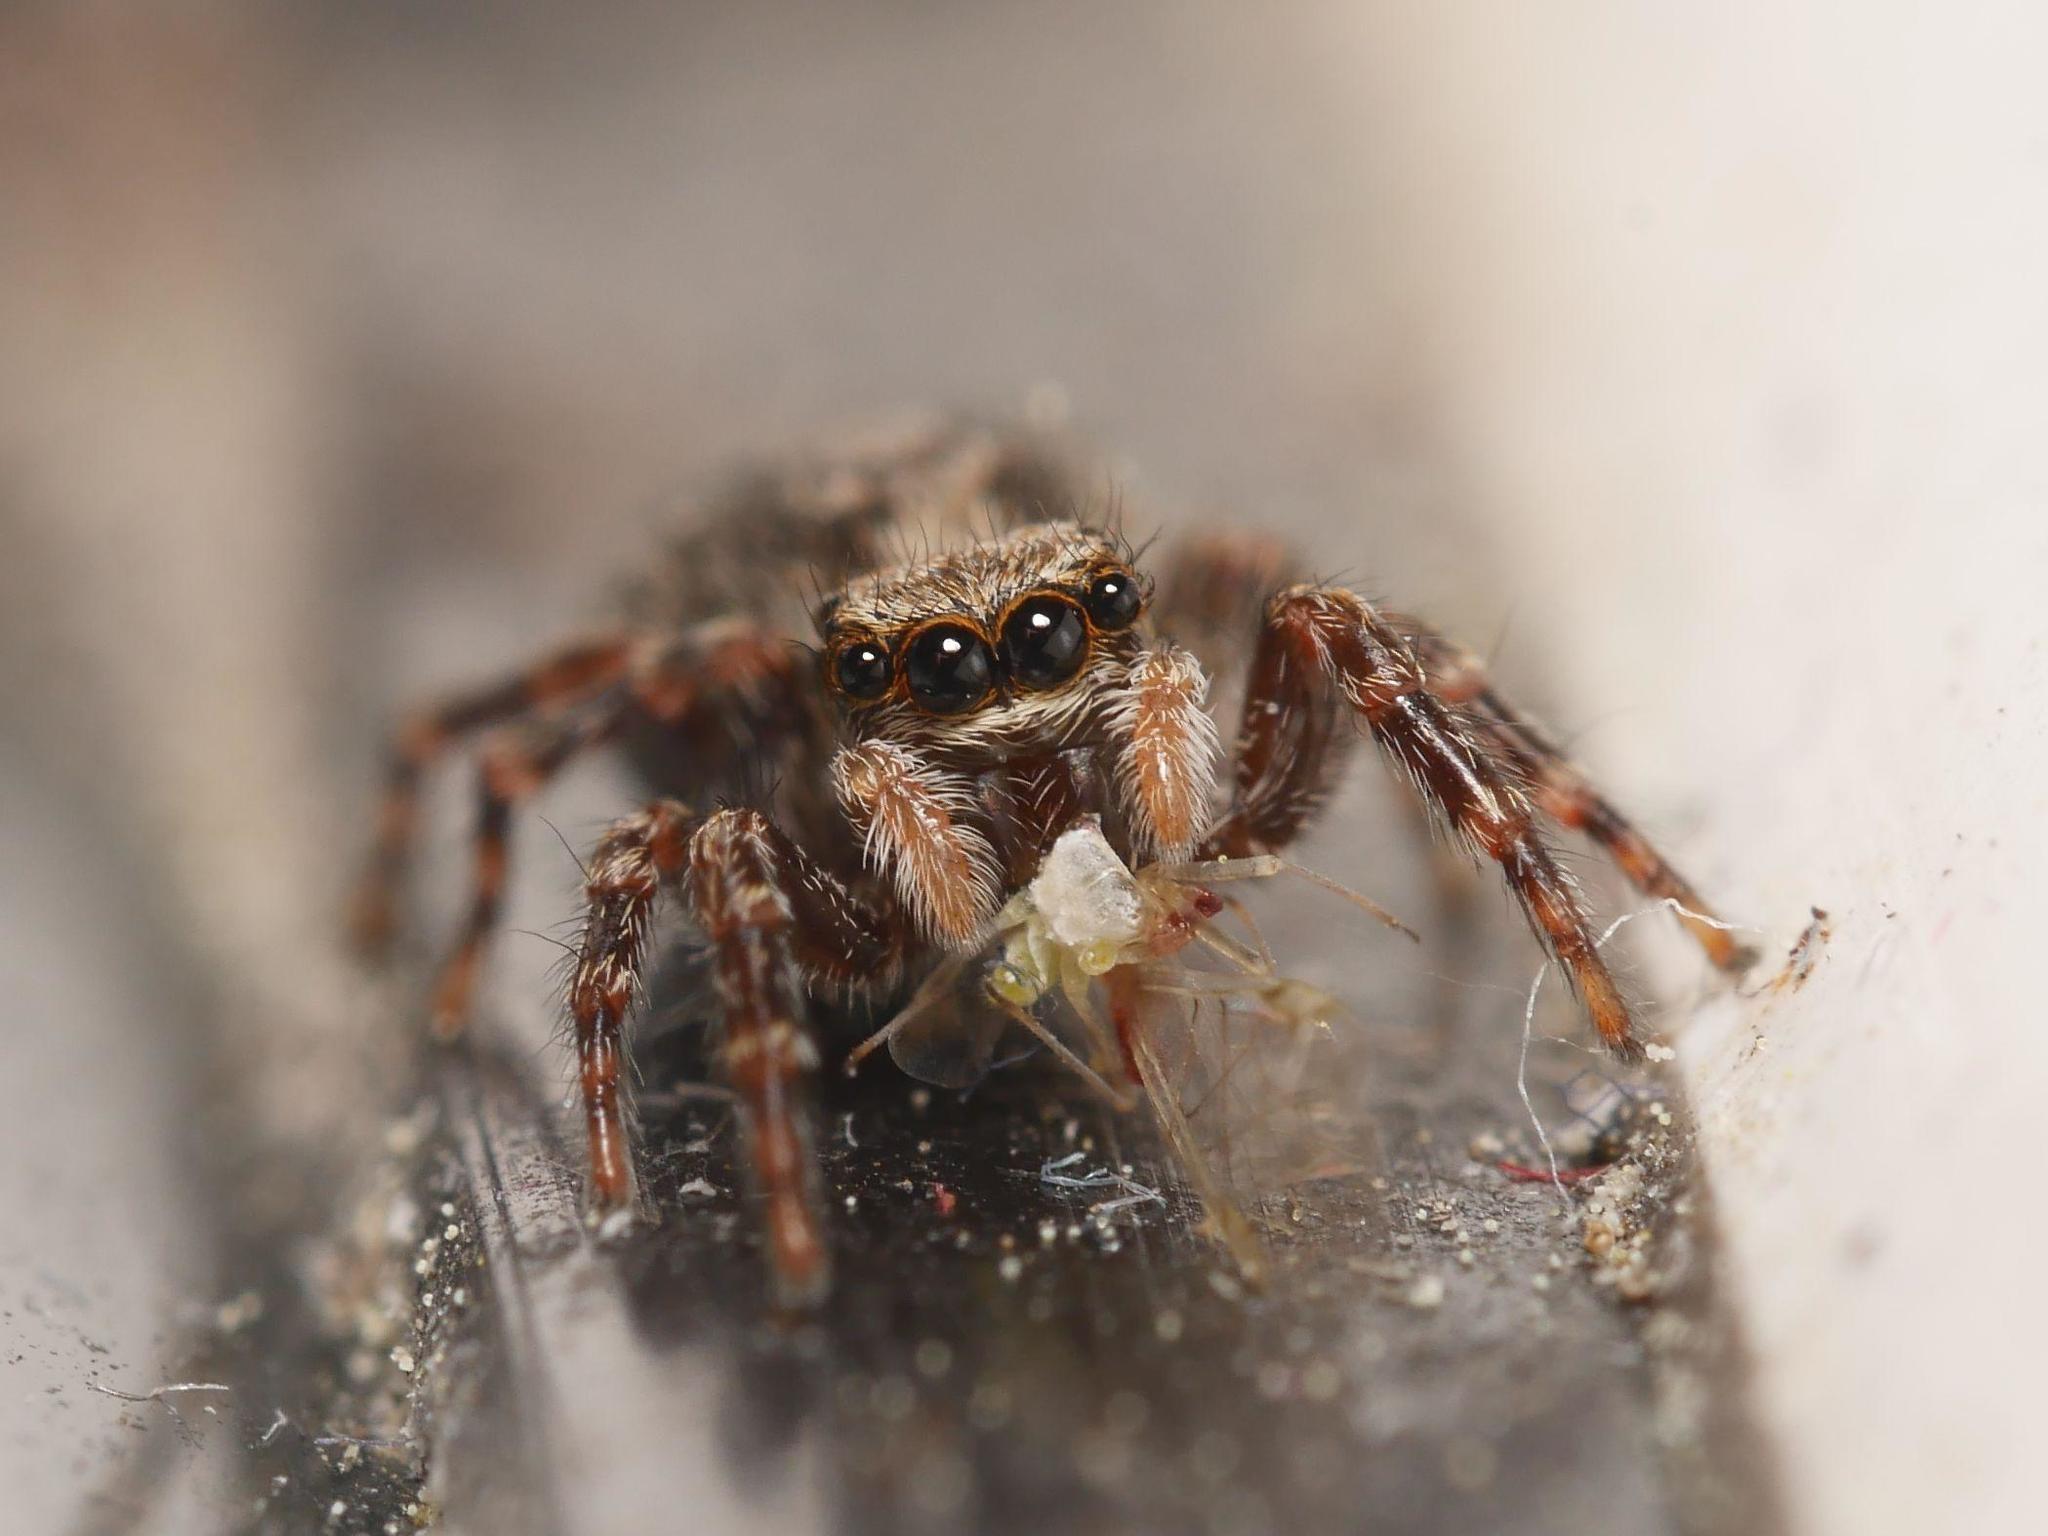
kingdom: Animalia
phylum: Arthropoda
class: Arachnida
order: Araneae
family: Salticidae
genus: Pseudeuophrys
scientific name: Pseudeuophrys lanigera
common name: Jumping spider
